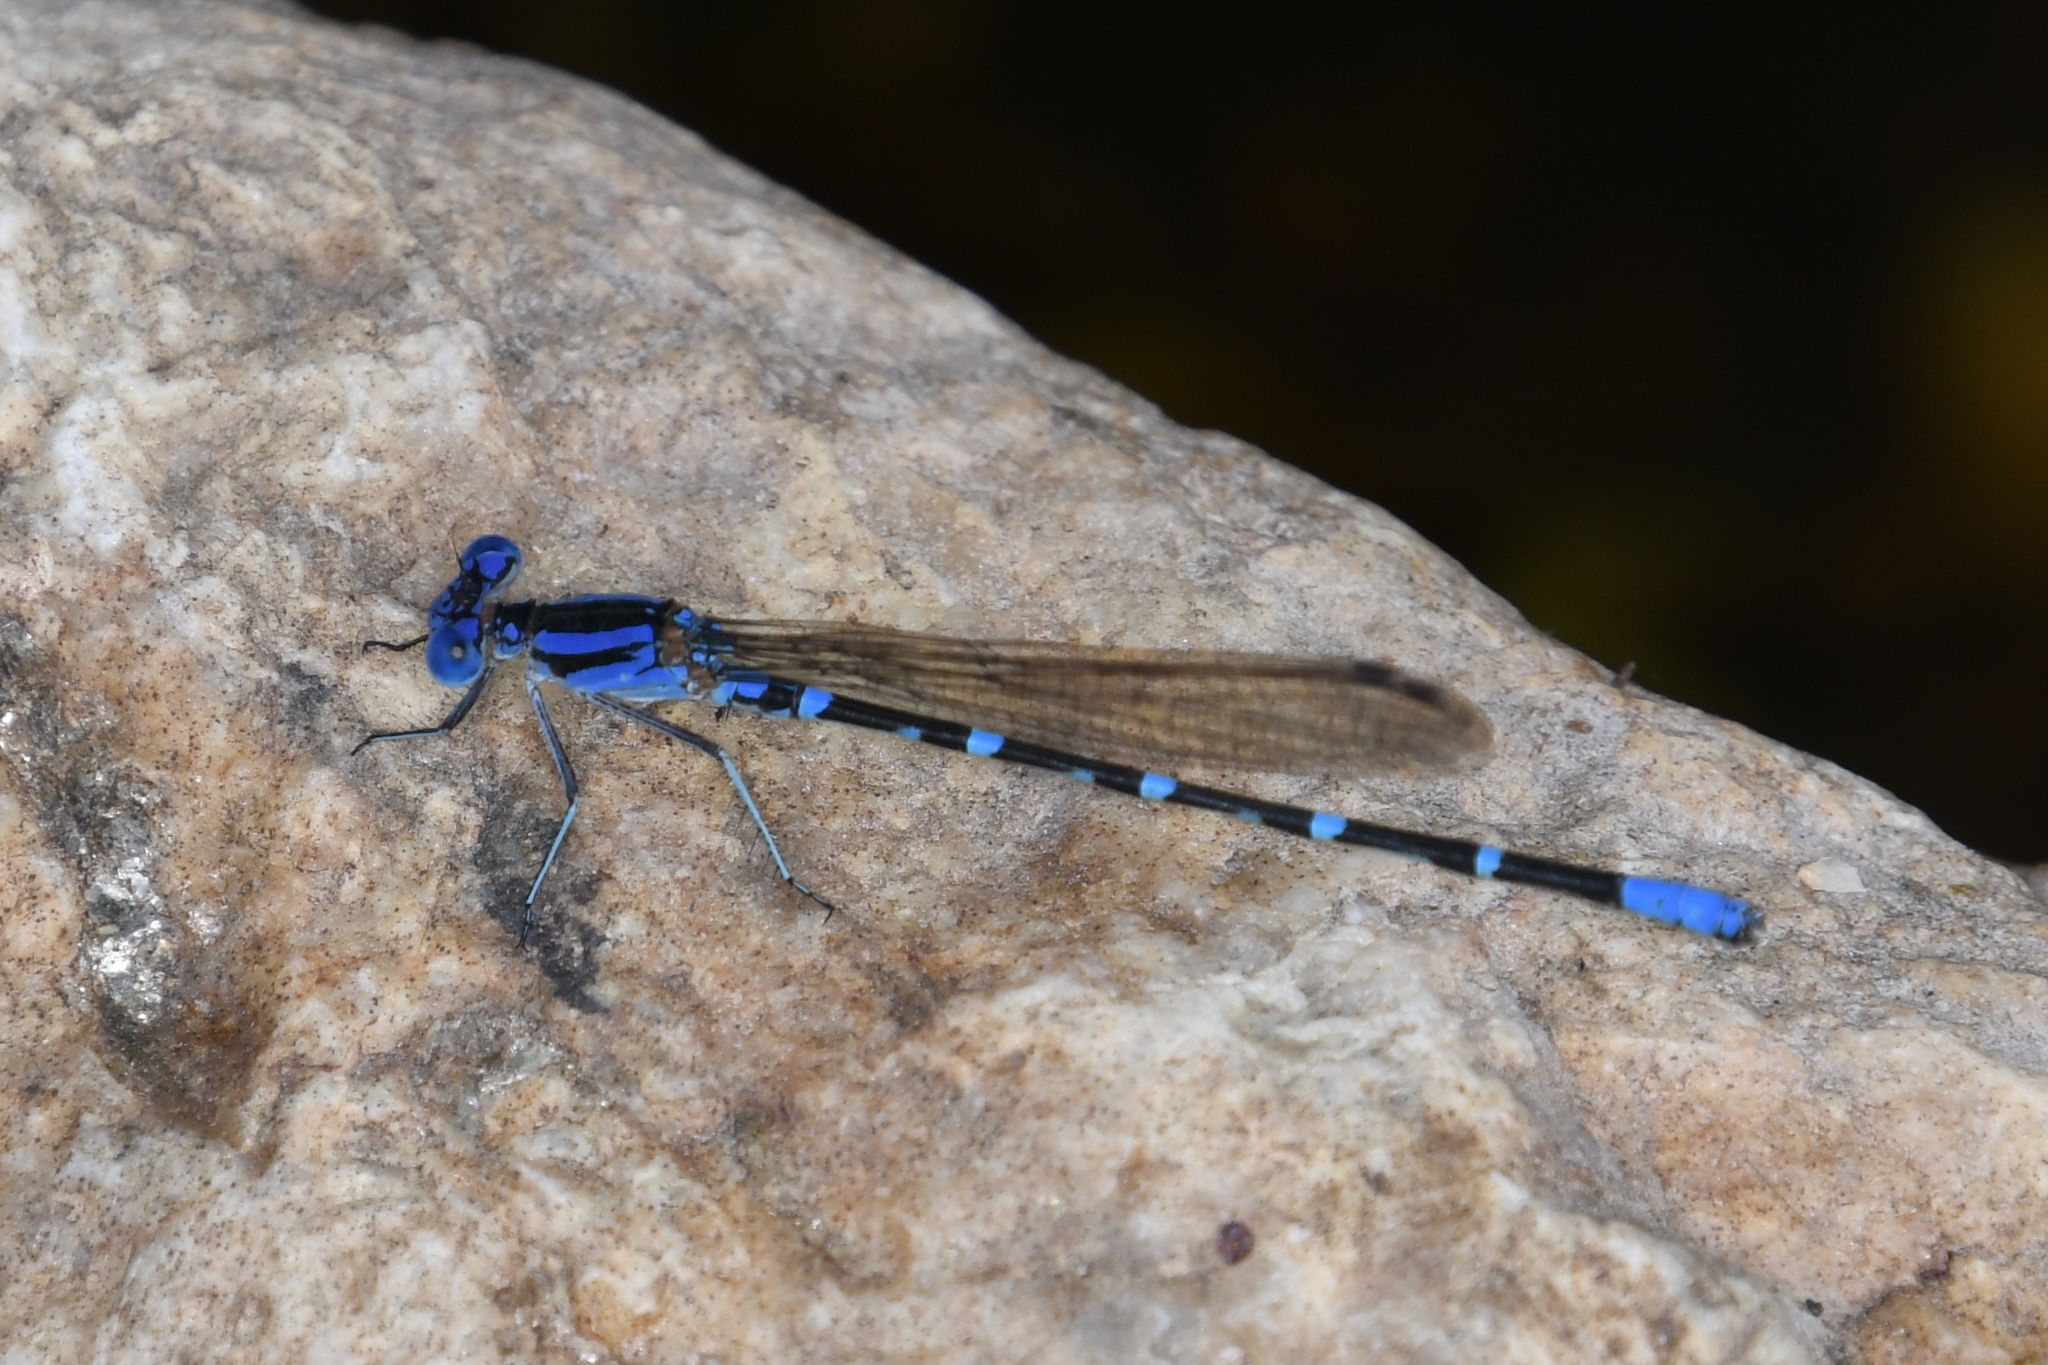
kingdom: Animalia
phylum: Arthropoda
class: Insecta
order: Odonata
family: Coenagrionidae
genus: Argia
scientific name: Argia sedula
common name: Blue-ringed dancer
